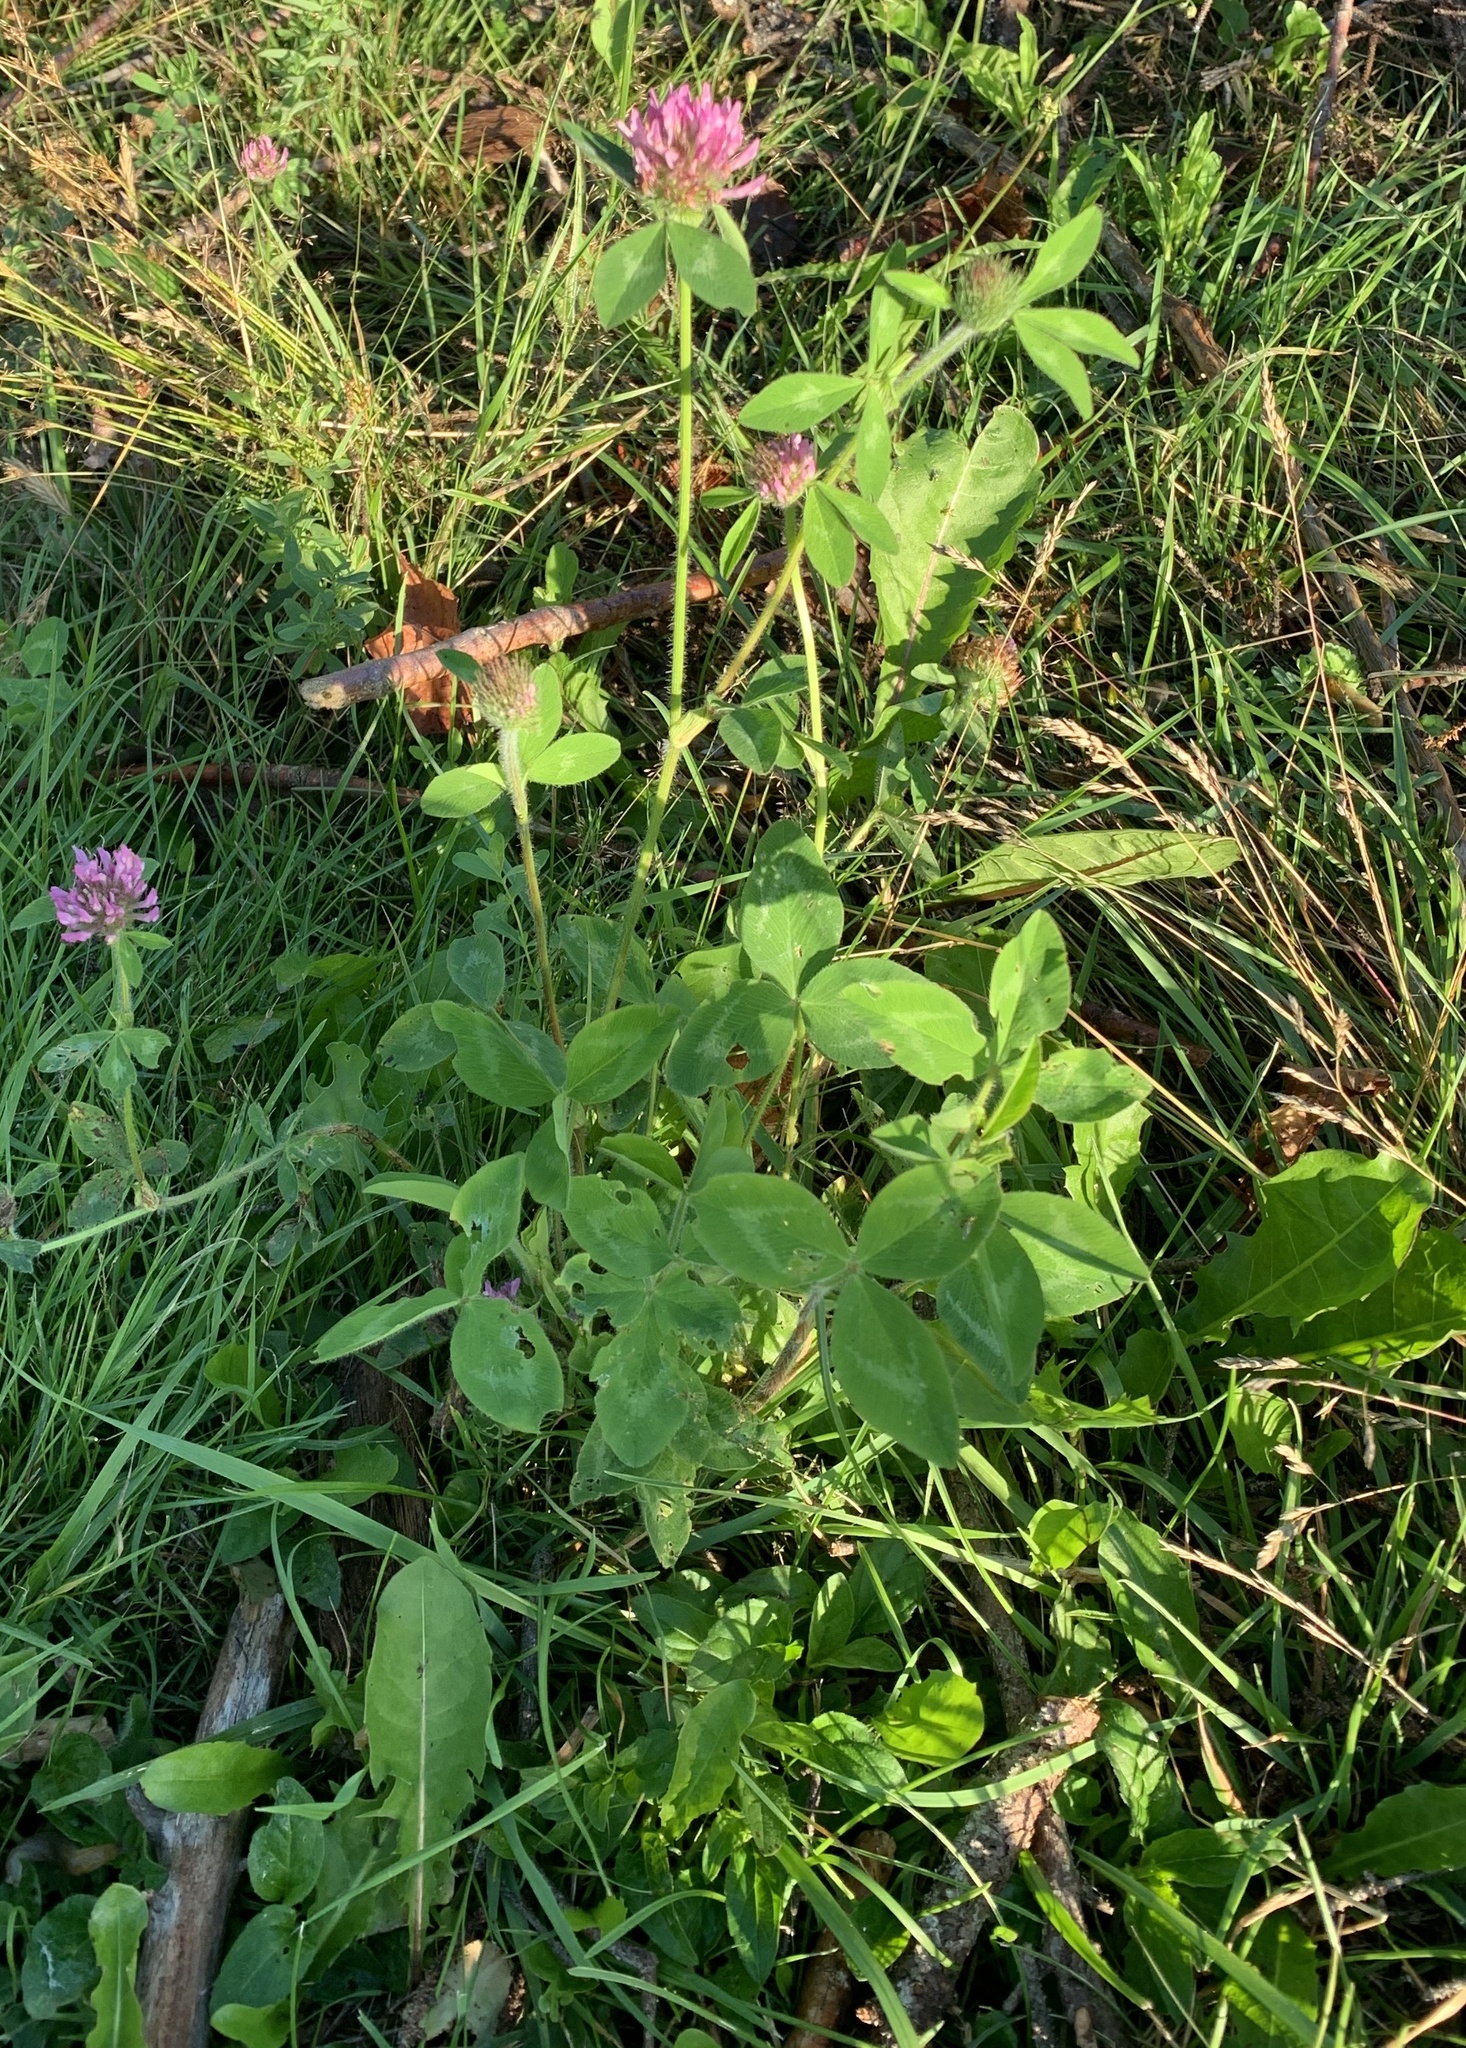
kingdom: Plantae
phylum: Tracheophyta
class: Magnoliopsida
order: Fabales
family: Fabaceae
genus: Trifolium
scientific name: Trifolium pratense
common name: Red clover
